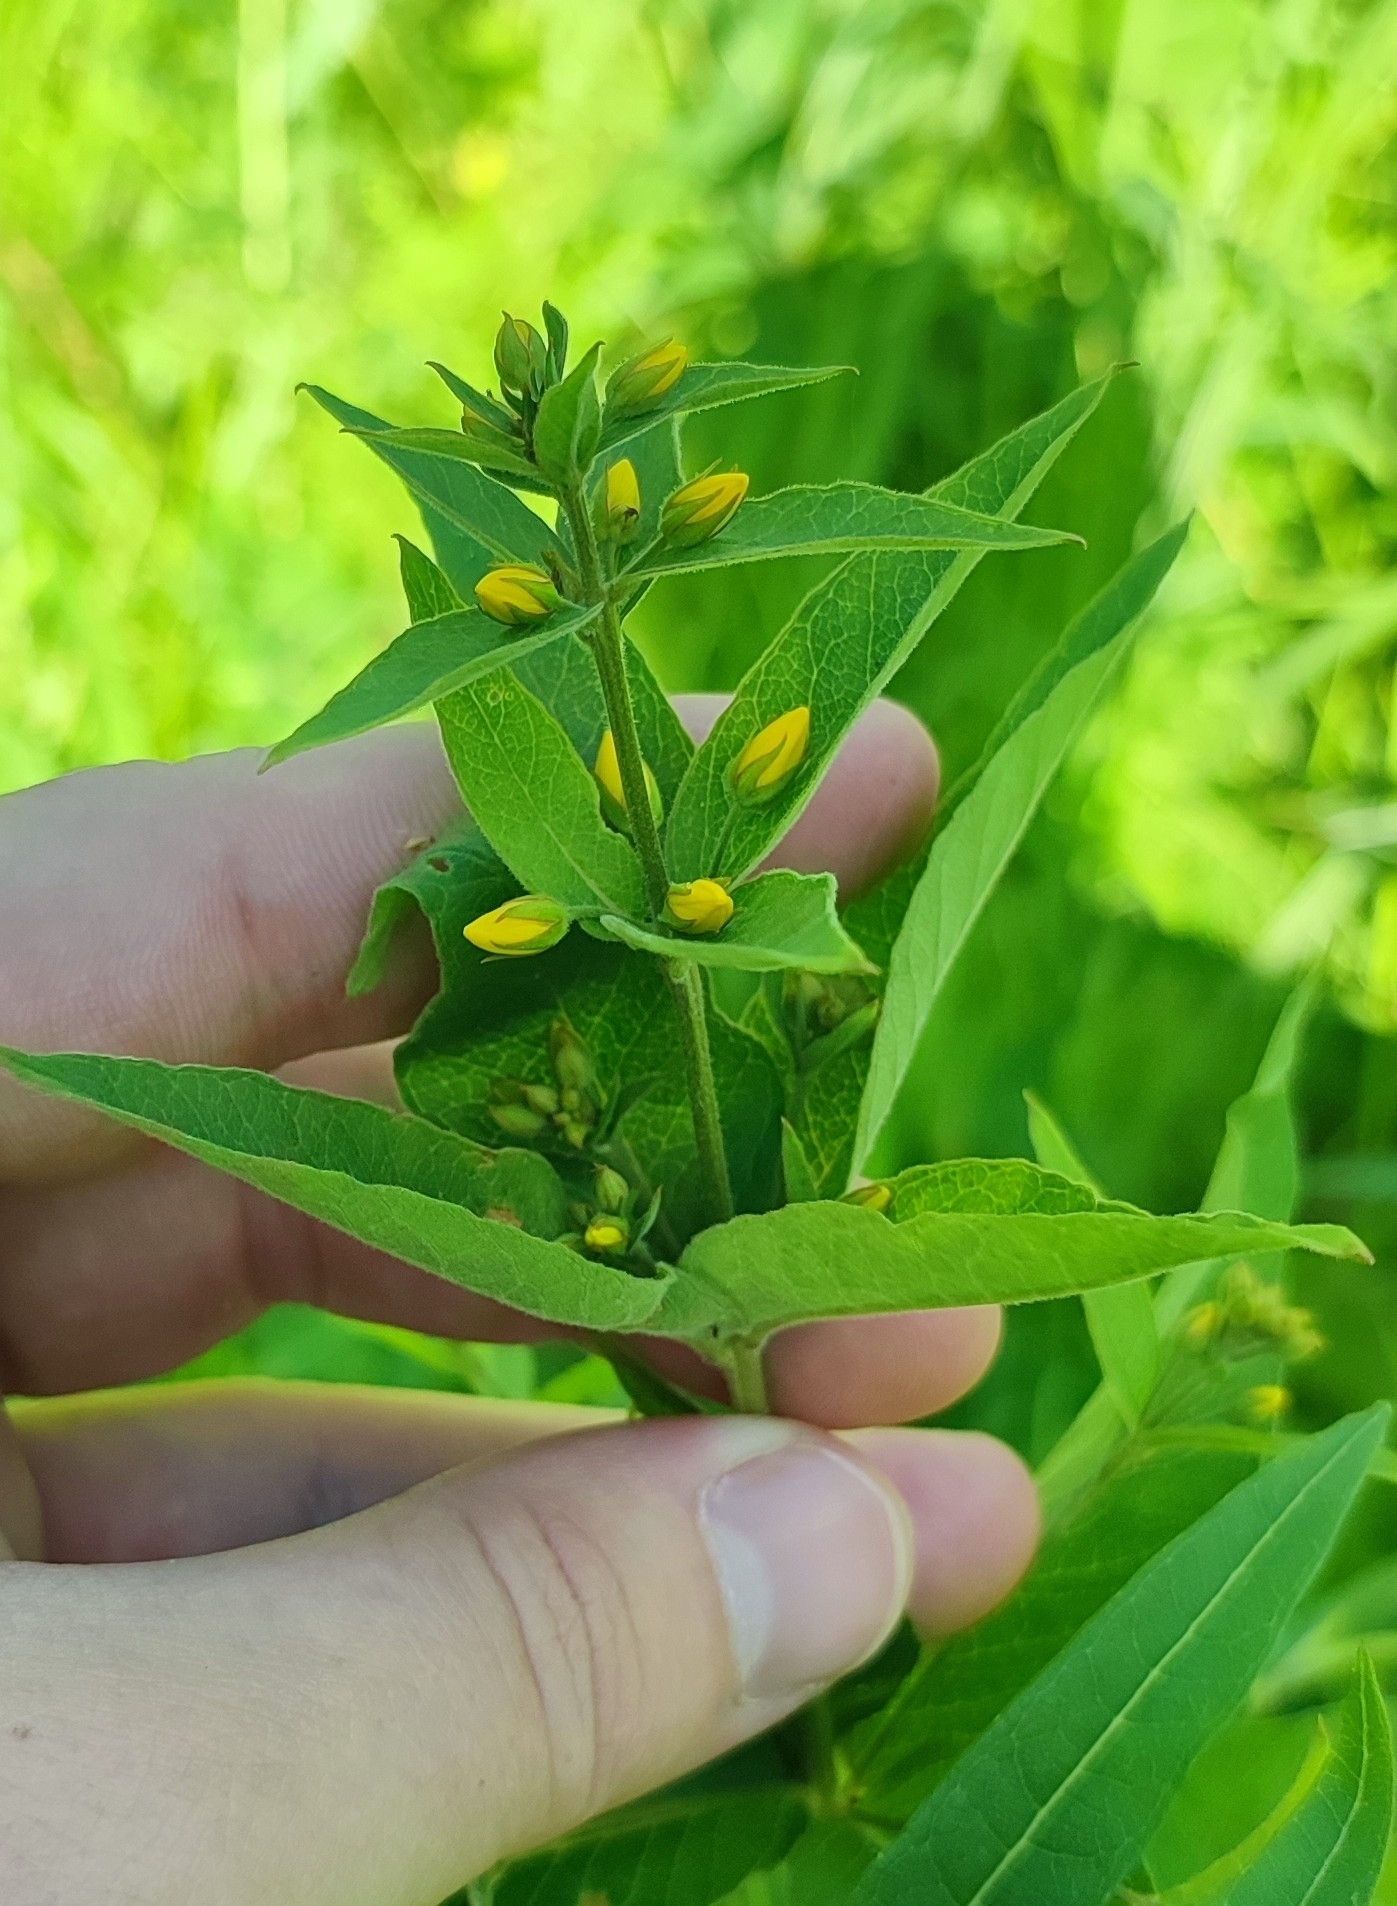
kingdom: Plantae
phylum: Tracheophyta
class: Magnoliopsida
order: Ericales
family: Primulaceae
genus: Lysimachia
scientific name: Lysimachia vulgaris
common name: Yellow loosestrife
